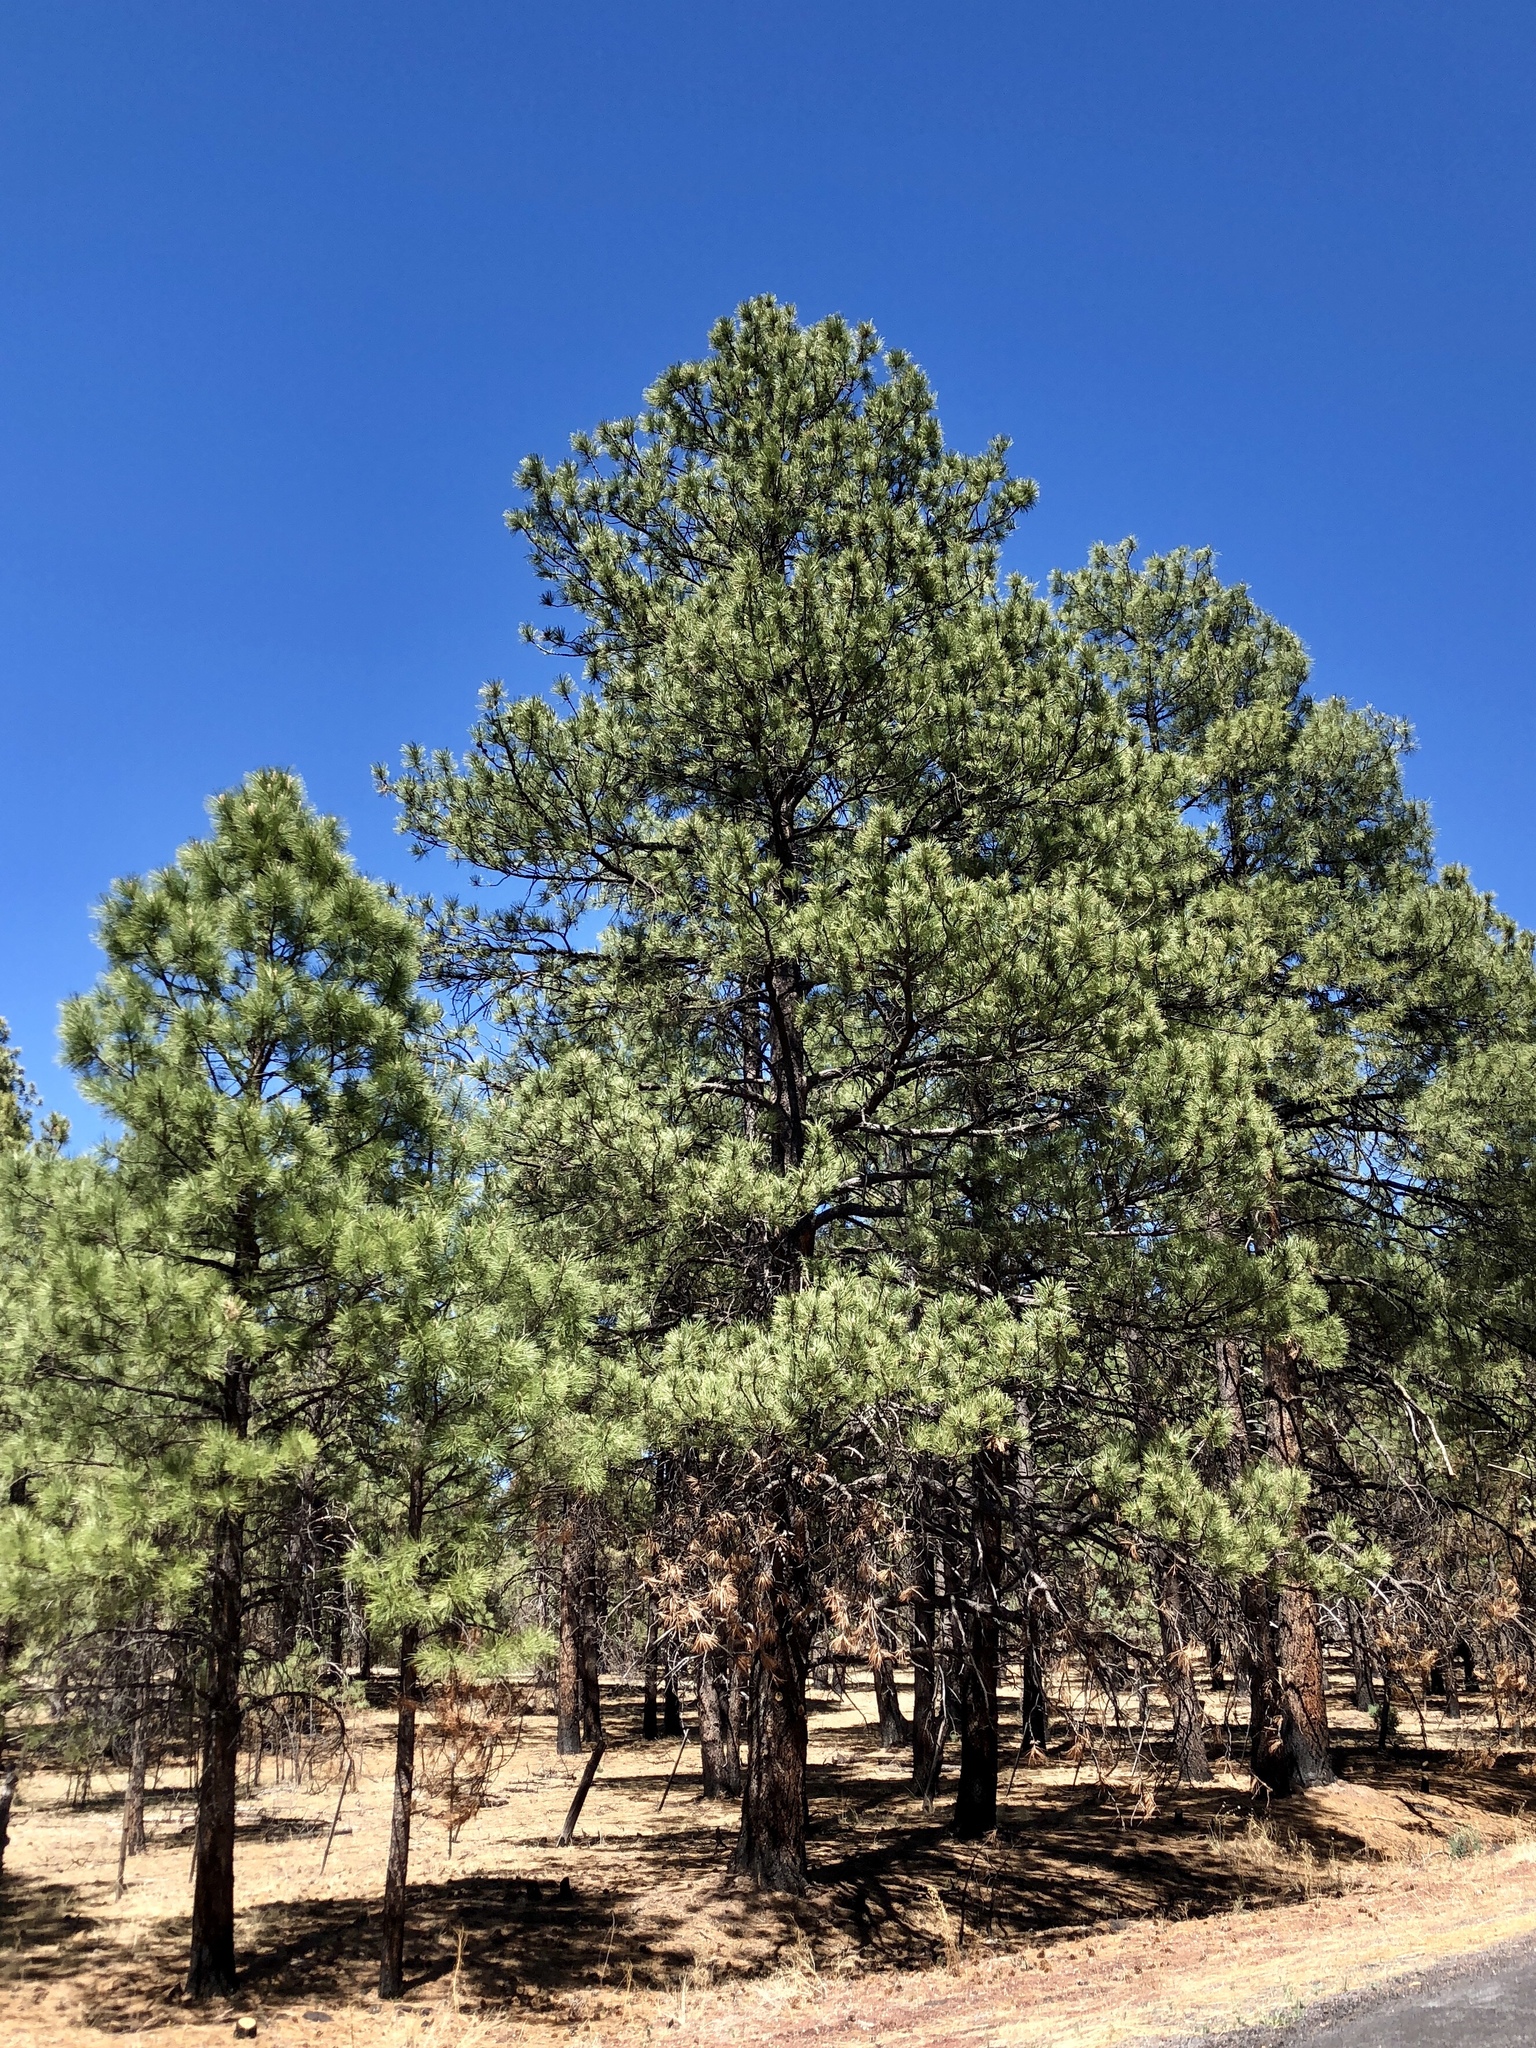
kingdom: Plantae
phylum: Tracheophyta
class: Pinopsida
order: Pinales
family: Pinaceae
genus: Pinus
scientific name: Pinus ponderosa
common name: Western yellow-pine
